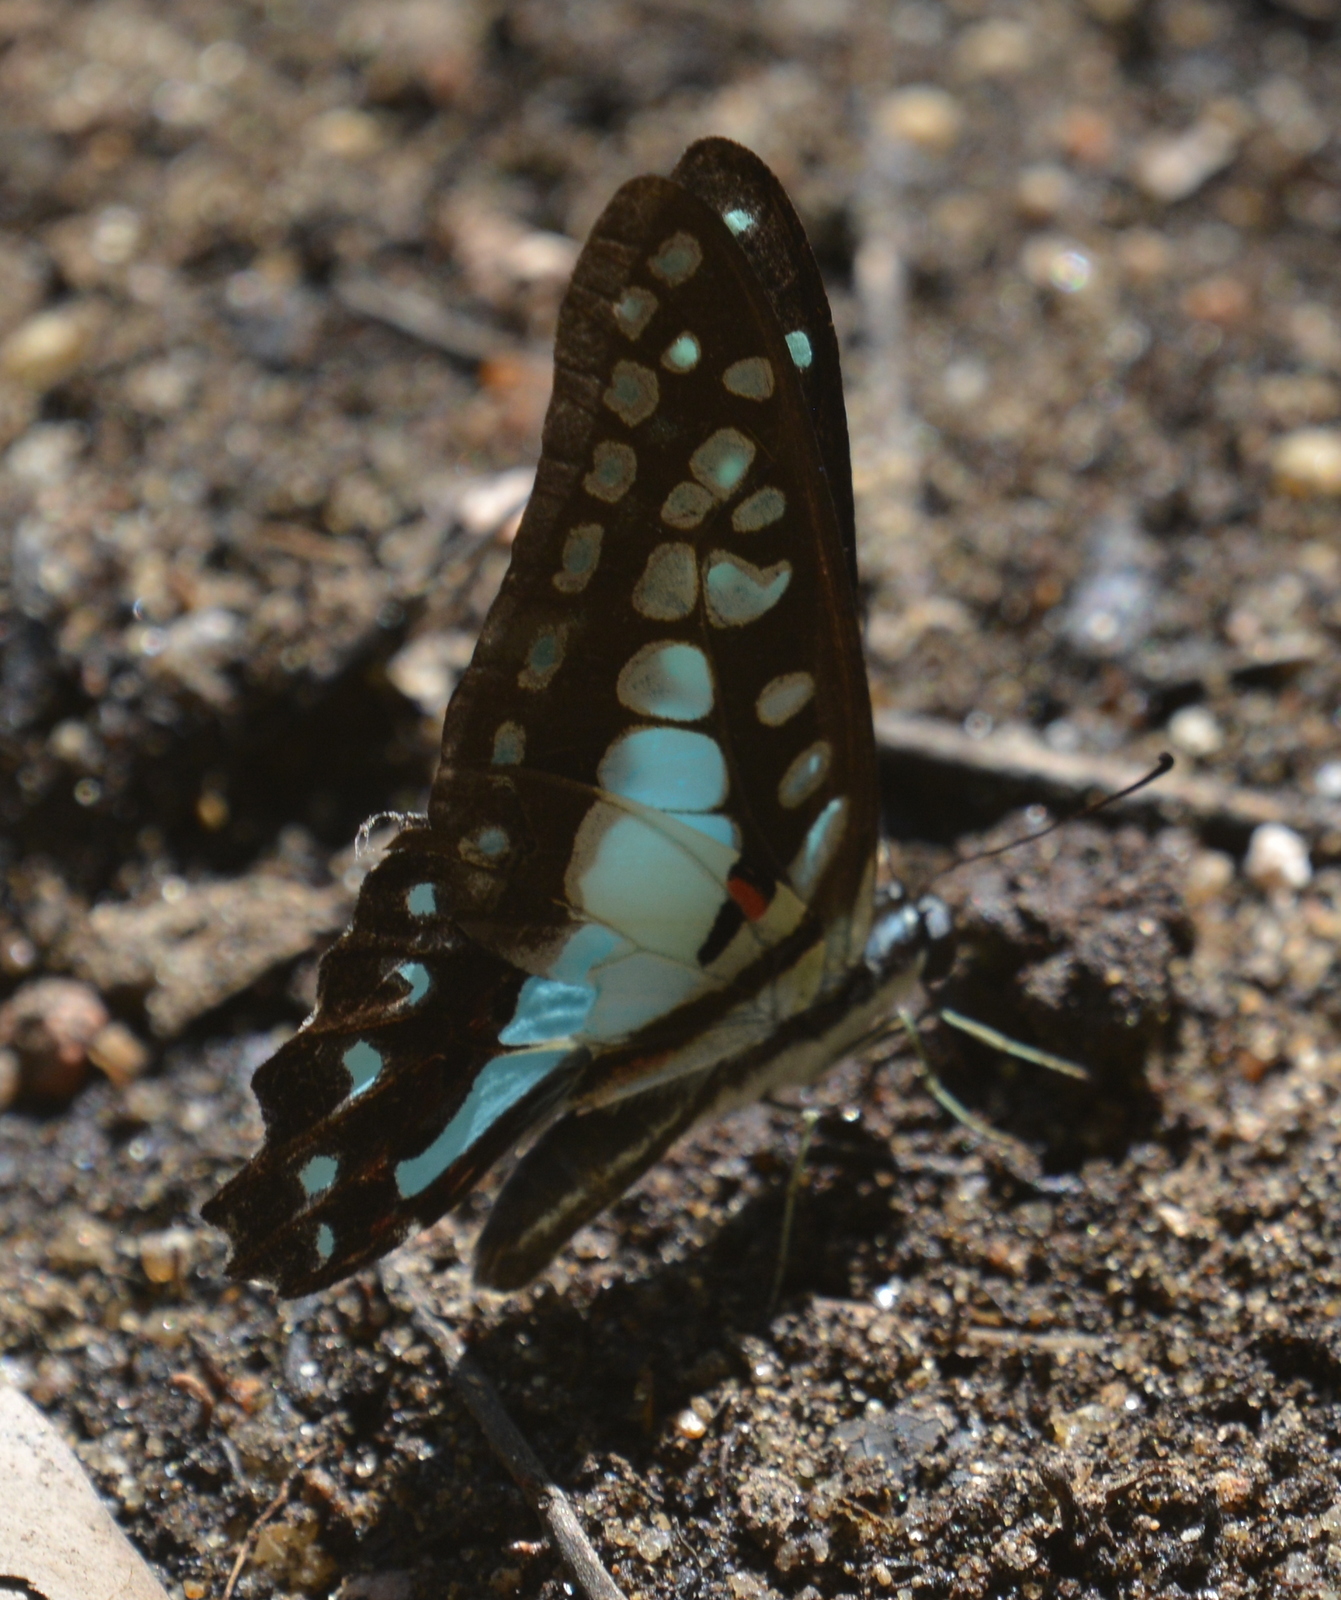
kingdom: Animalia
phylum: Arthropoda
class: Insecta
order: Lepidoptera
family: Papilionidae
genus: Graphium
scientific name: Graphium doson
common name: Common jay
